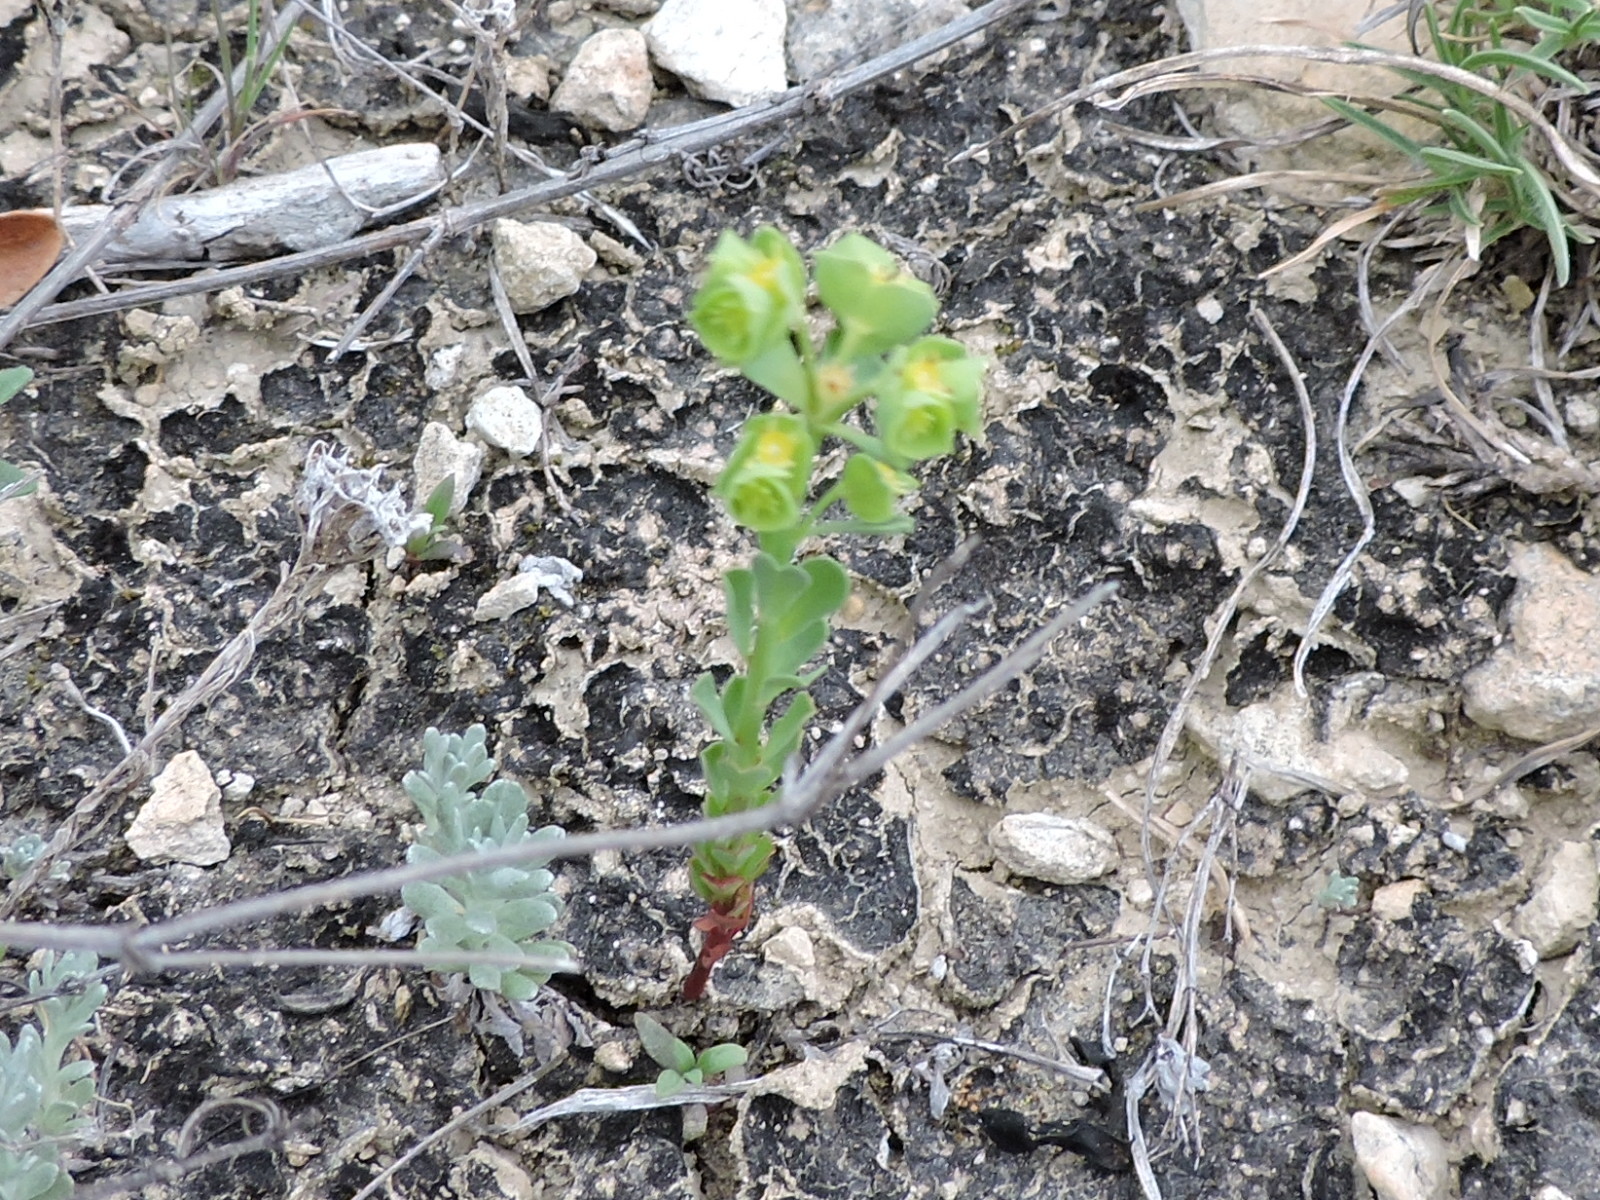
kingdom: Plantae
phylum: Tracheophyta
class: Magnoliopsida
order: Malpighiales
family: Euphorbiaceae
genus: Euphorbia
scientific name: Euphorbia longicruris
